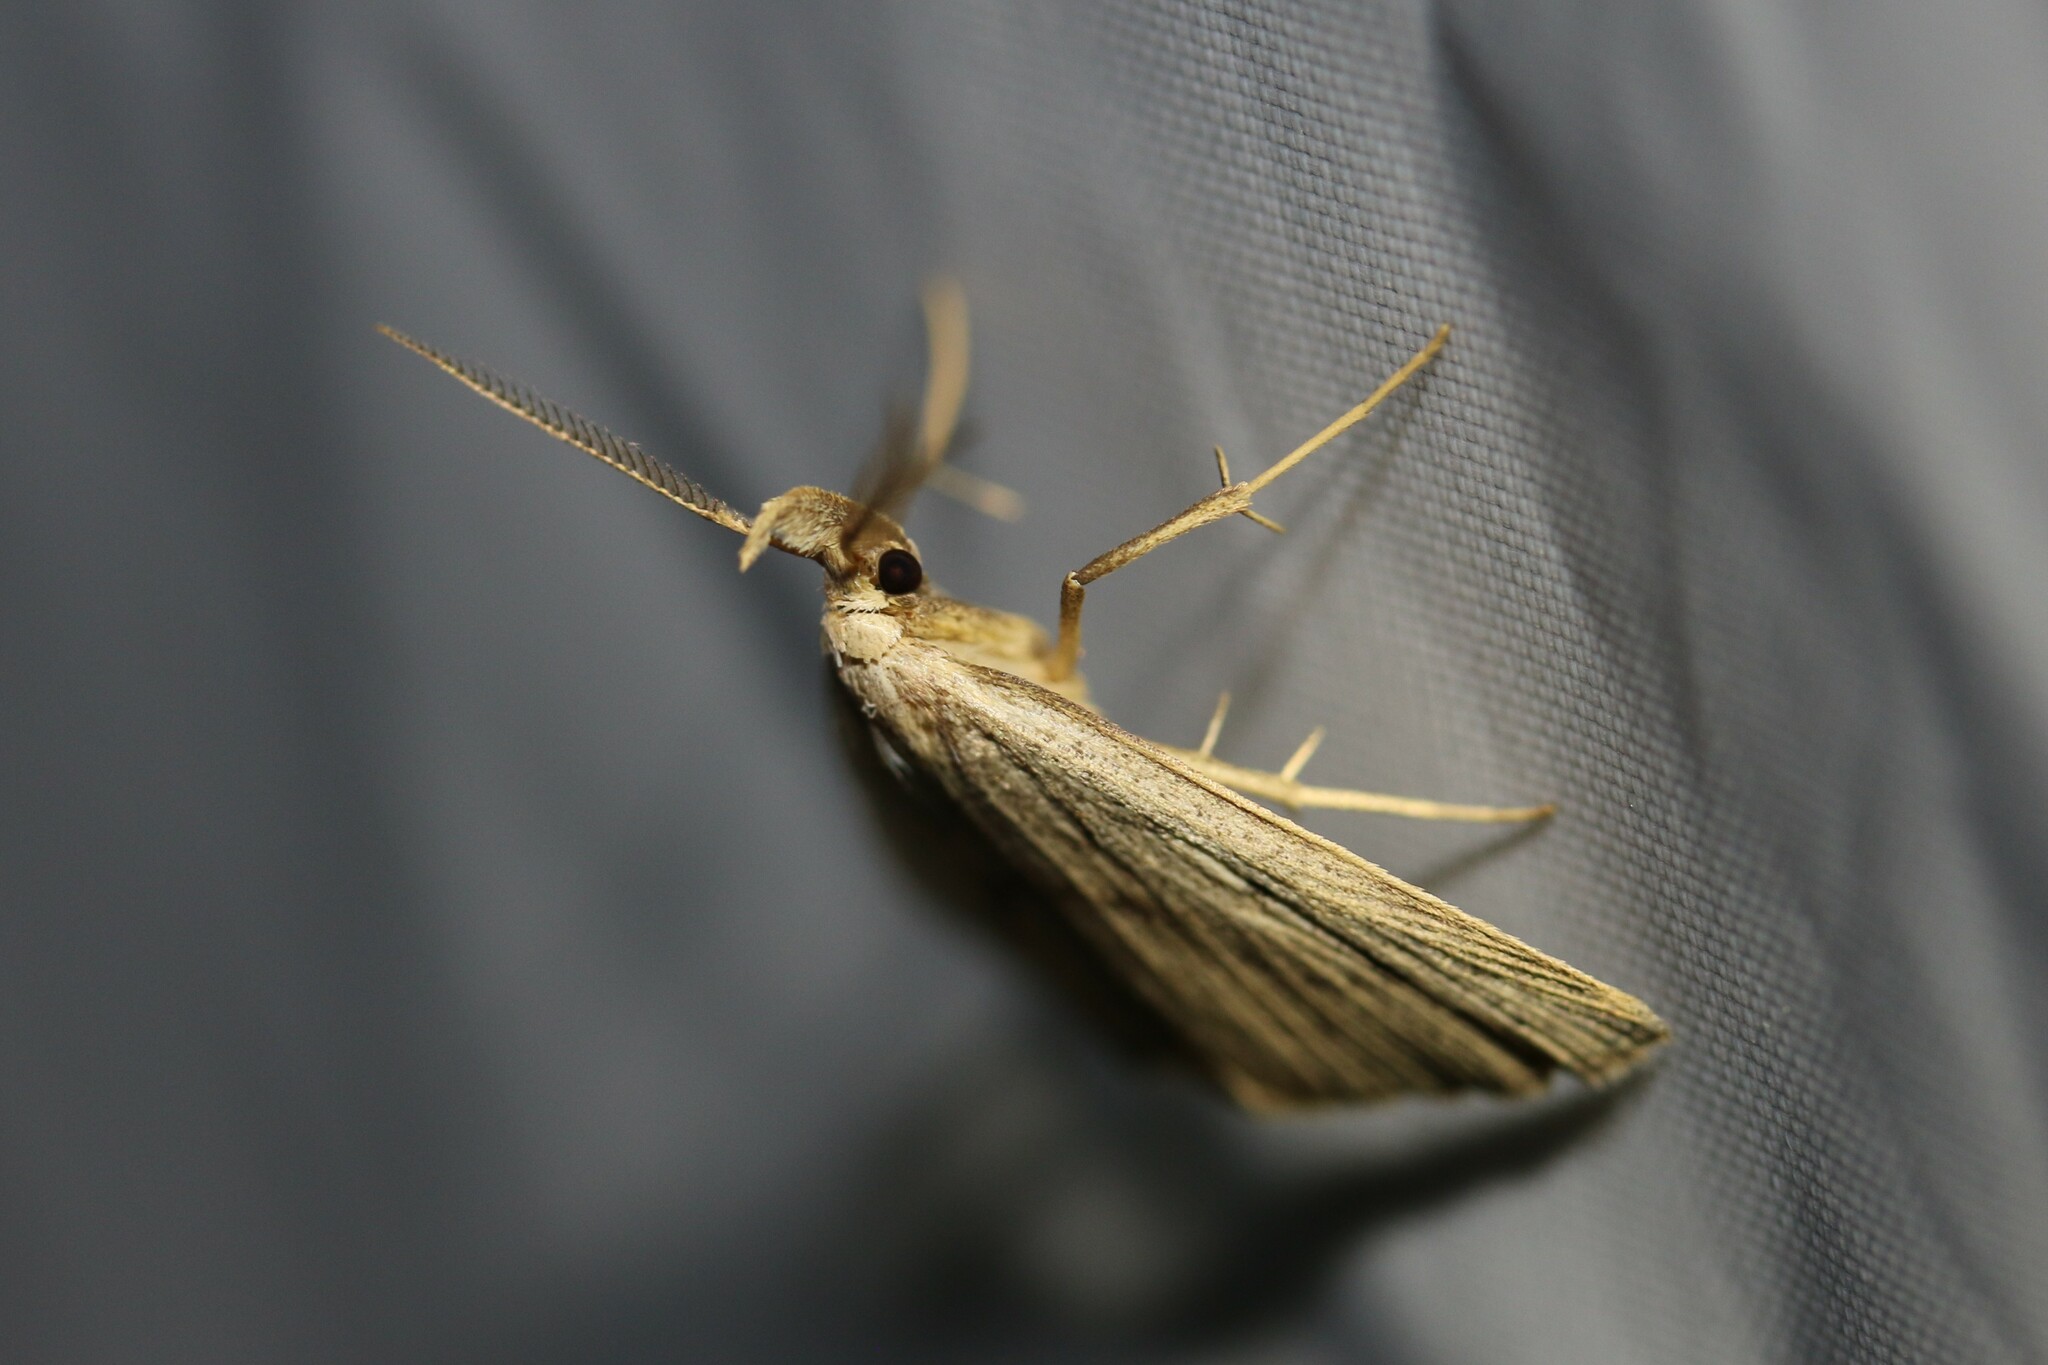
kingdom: Animalia
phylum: Arthropoda
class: Insecta
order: Lepidoptera
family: Erebidae
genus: Macrochilo
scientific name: Macrochilo cribrumalis
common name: Dotted fan-foot
